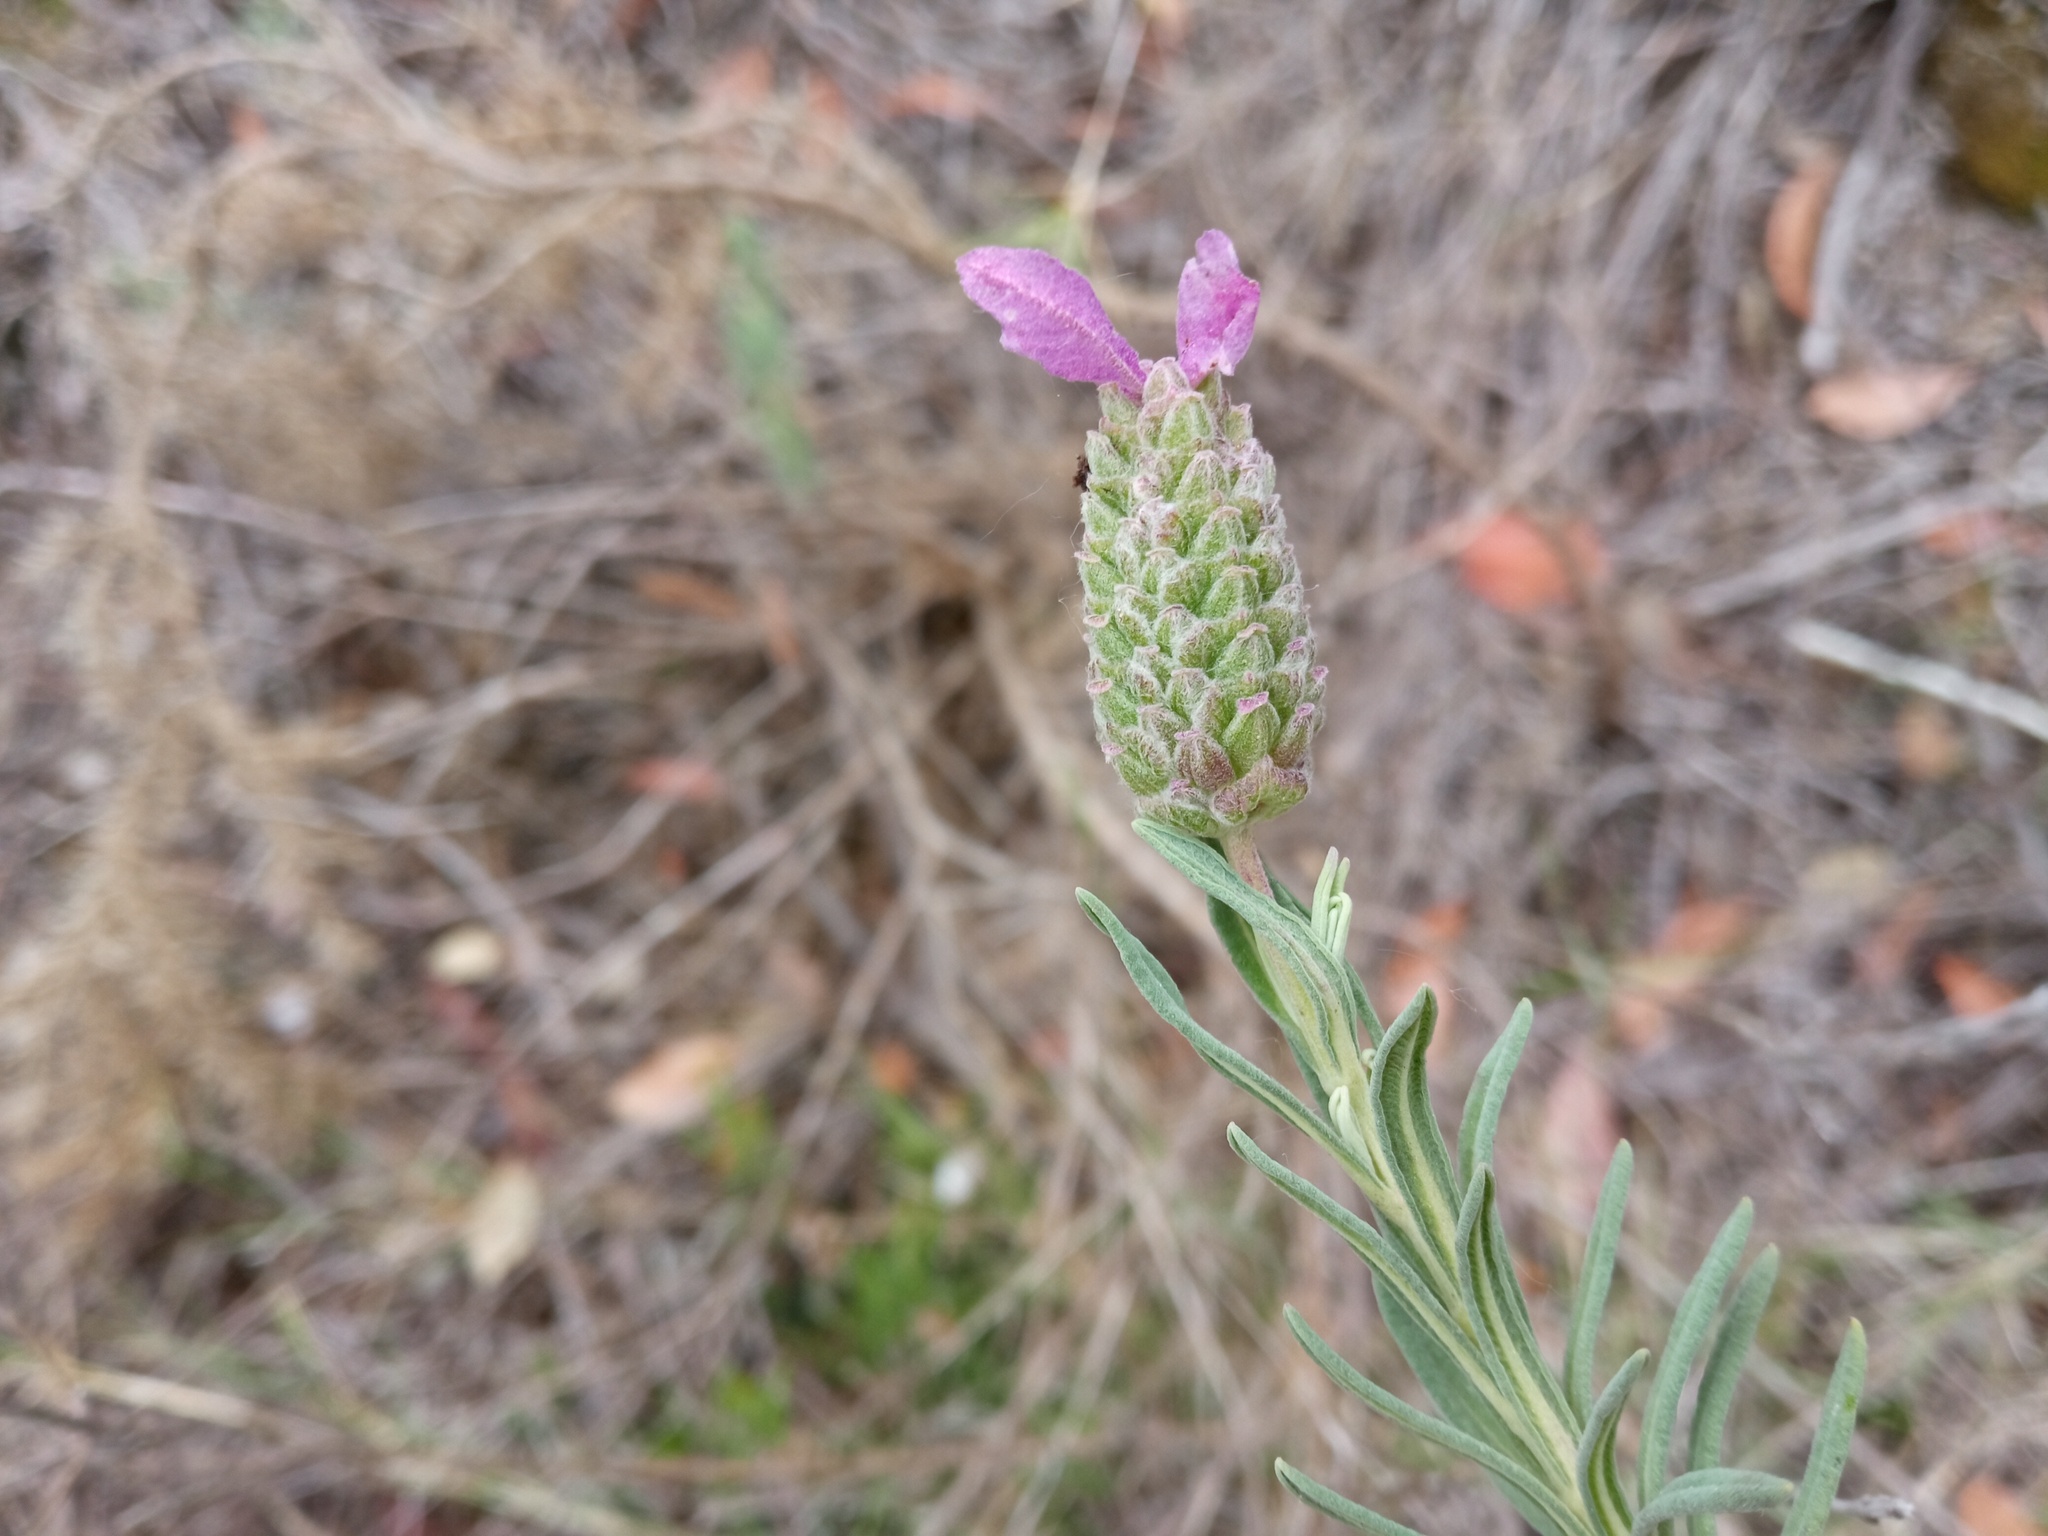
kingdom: Plantae
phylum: Tracheophyta
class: Magnoliopsida
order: Lamiales
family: Lamiaceae
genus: Lavandula
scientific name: Lavandula stoechas
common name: French lavender
